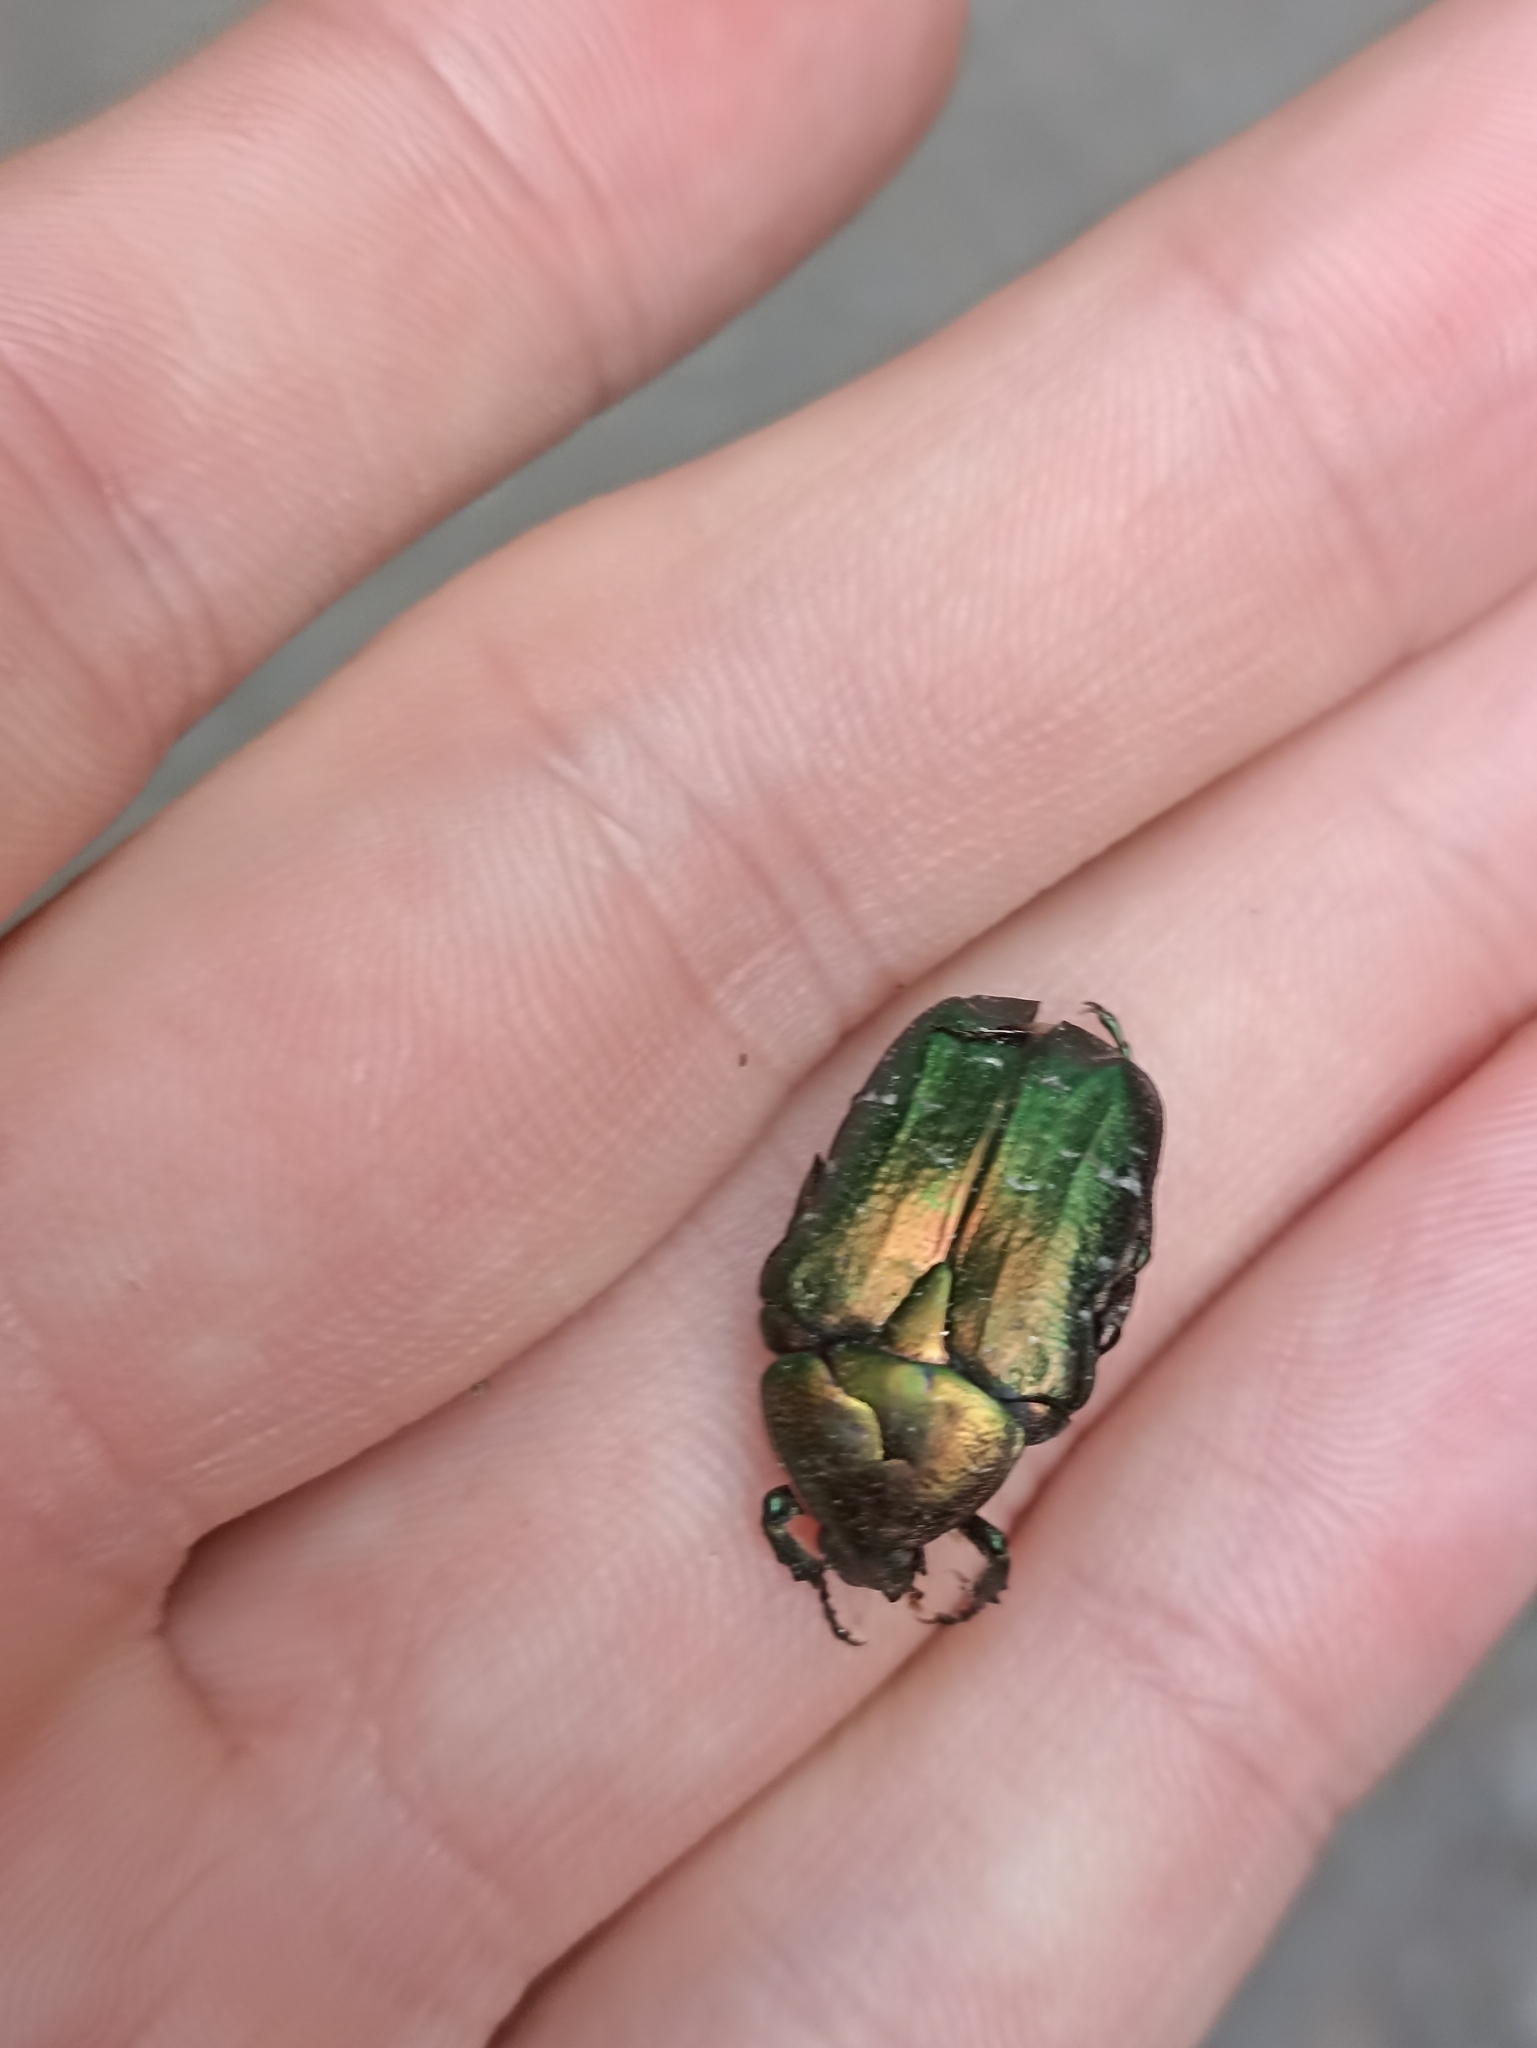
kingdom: Animalia
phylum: Arthropoda
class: Insecta
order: Coleoptera
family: Scarabaeidae
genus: Cetonia
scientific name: Cetonia aurata
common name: Rose chafer
